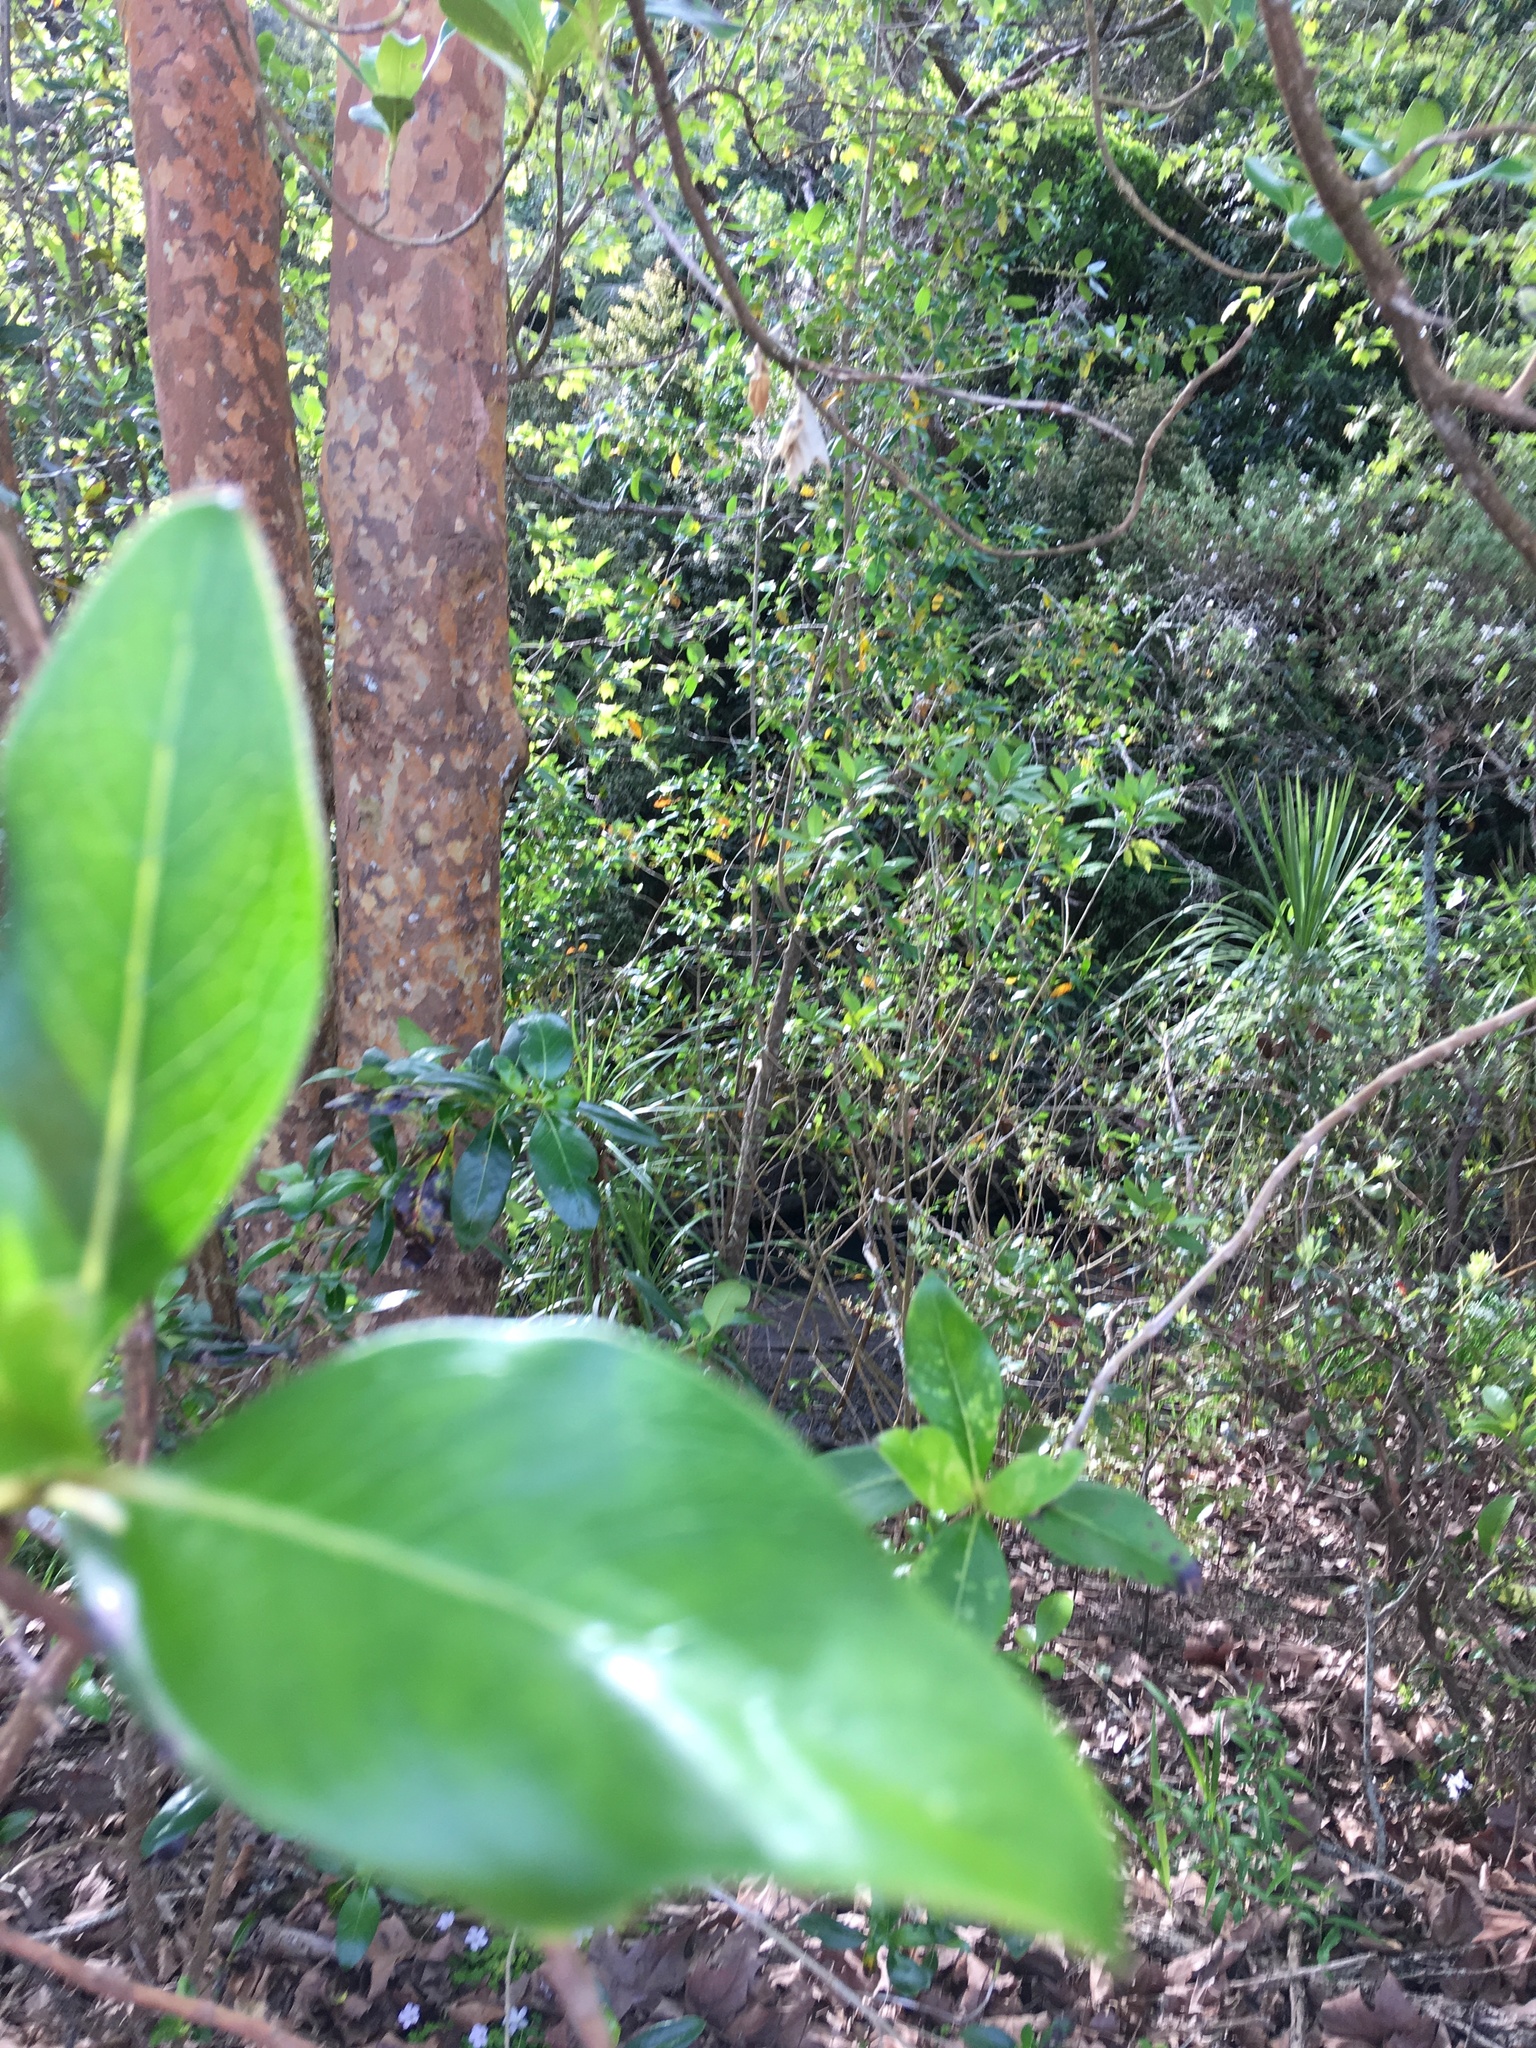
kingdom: Plantae
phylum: Tracheophyta
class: Magnoliopsida
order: Gentianales
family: Rubiaceae
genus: Coprosma
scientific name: Coprosma robusta
